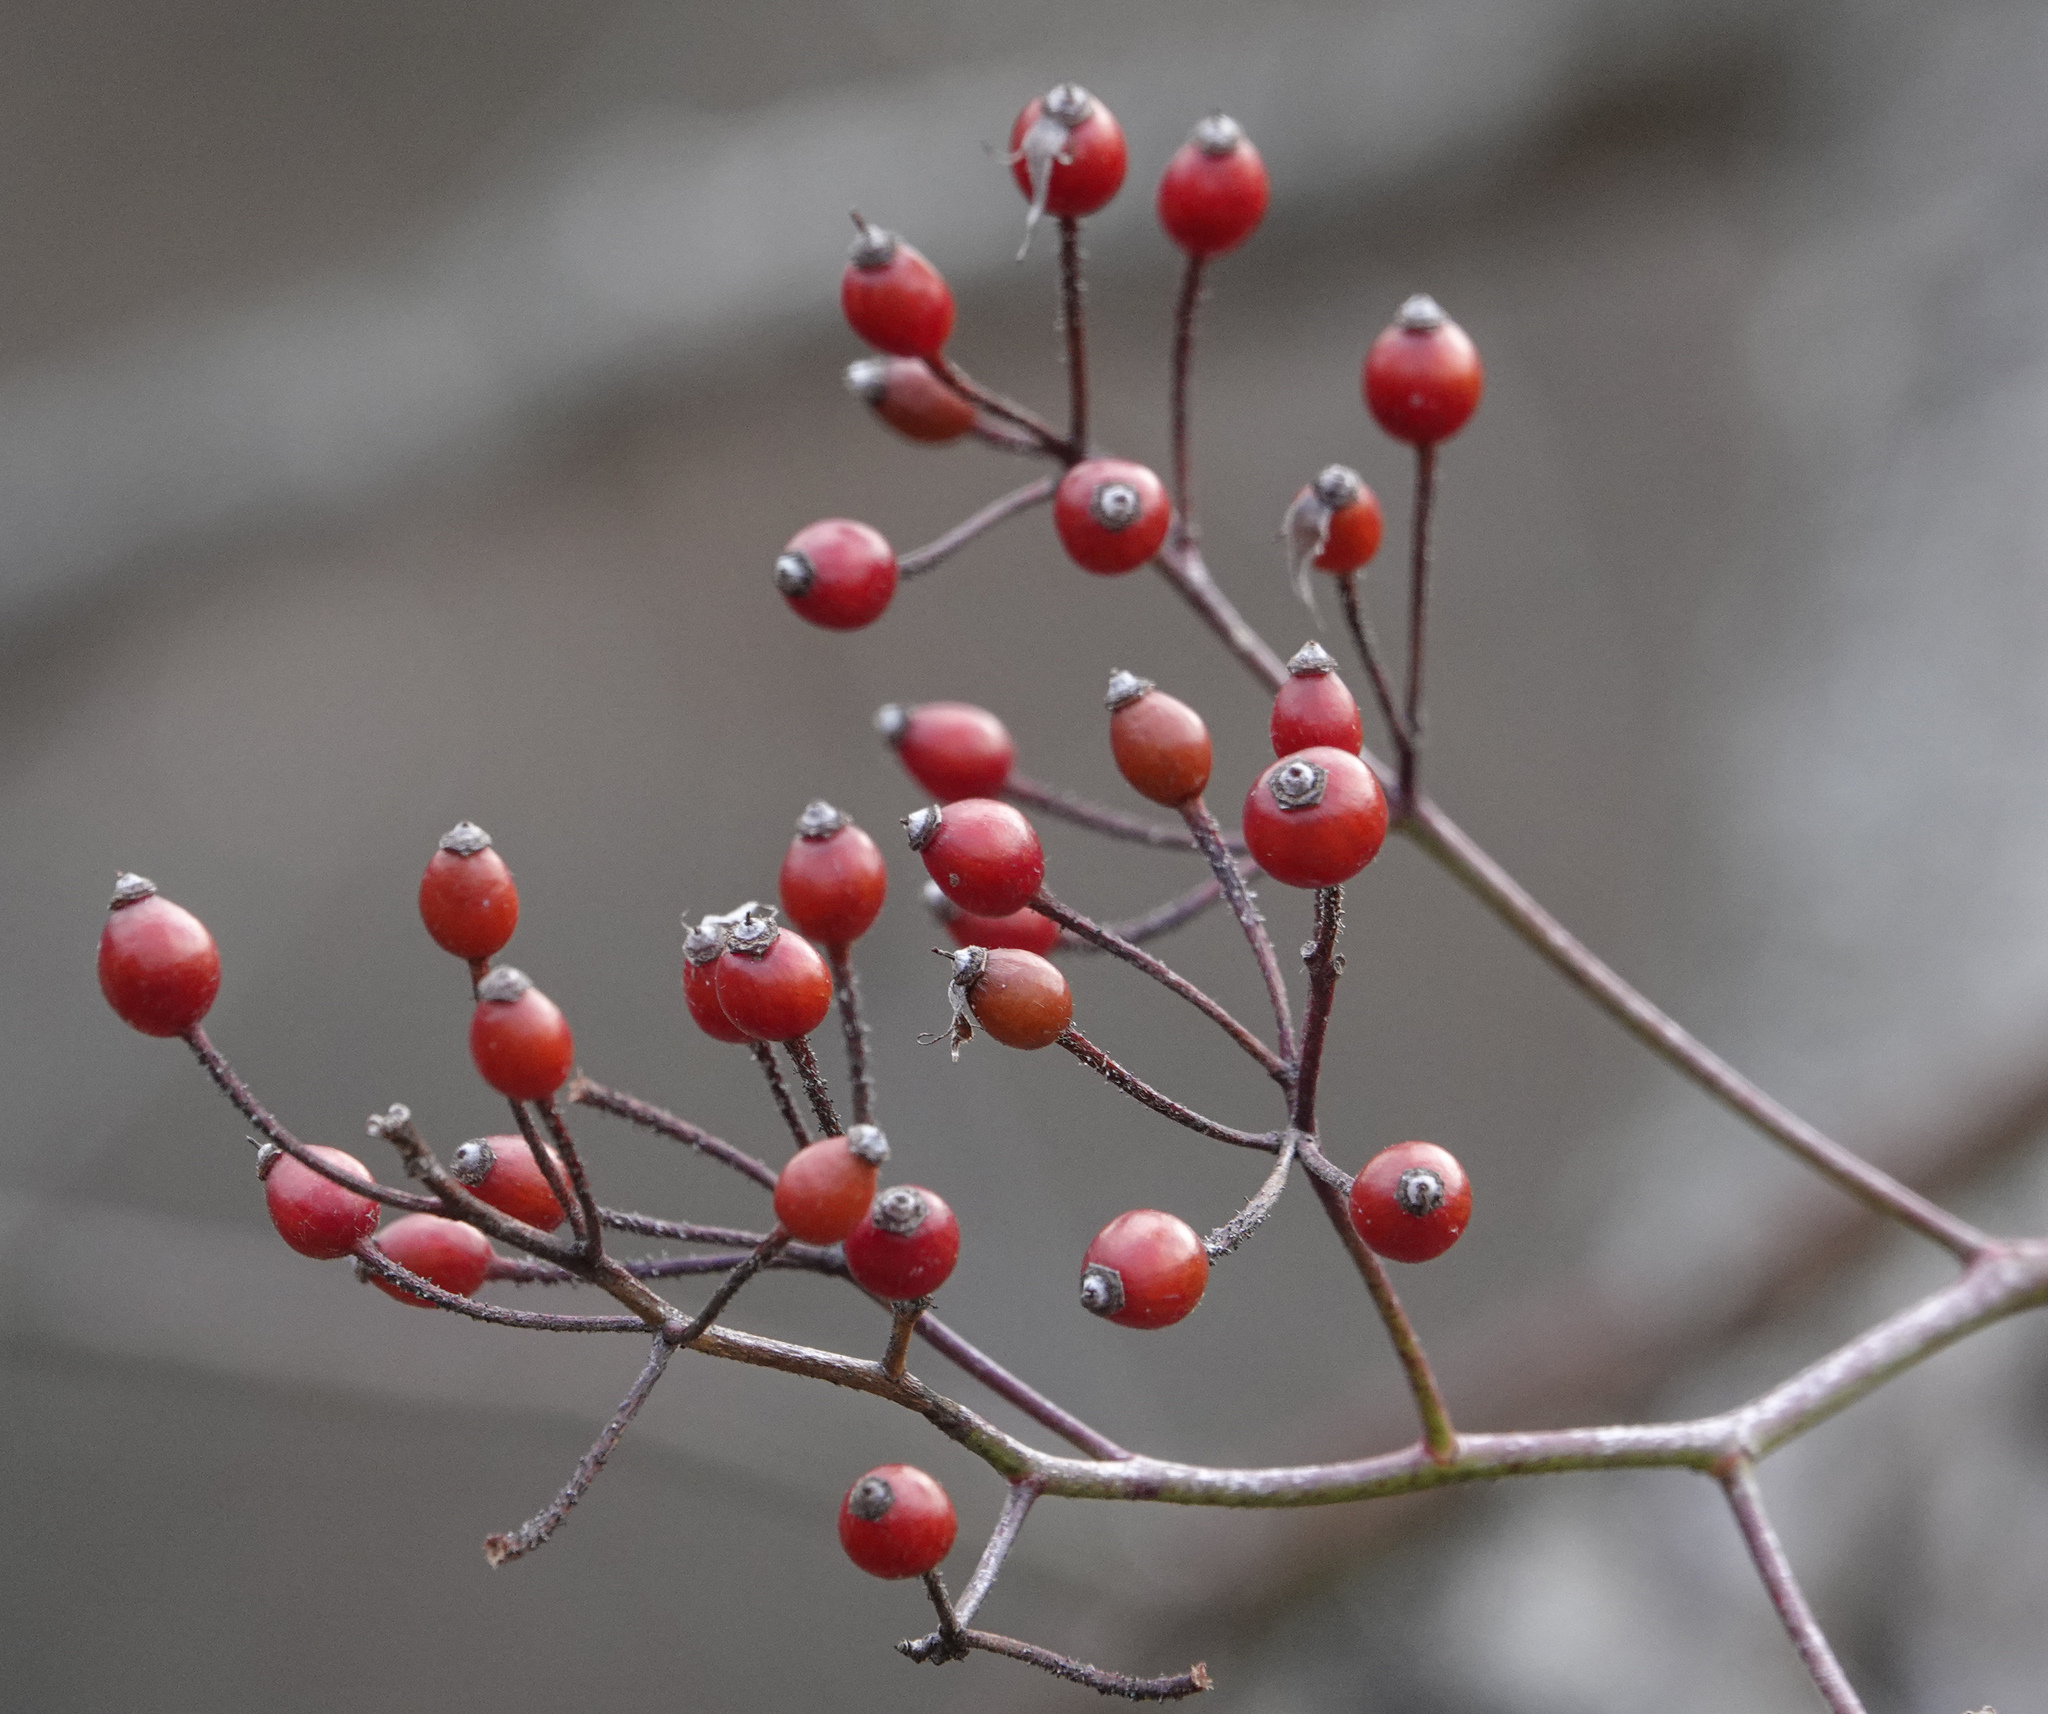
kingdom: Plantae
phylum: Tracheophyta
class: Magnoliopsida
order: Rosales
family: Rosaceae
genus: Rosa
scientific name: Rosa multiflora
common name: Multiflora rose
